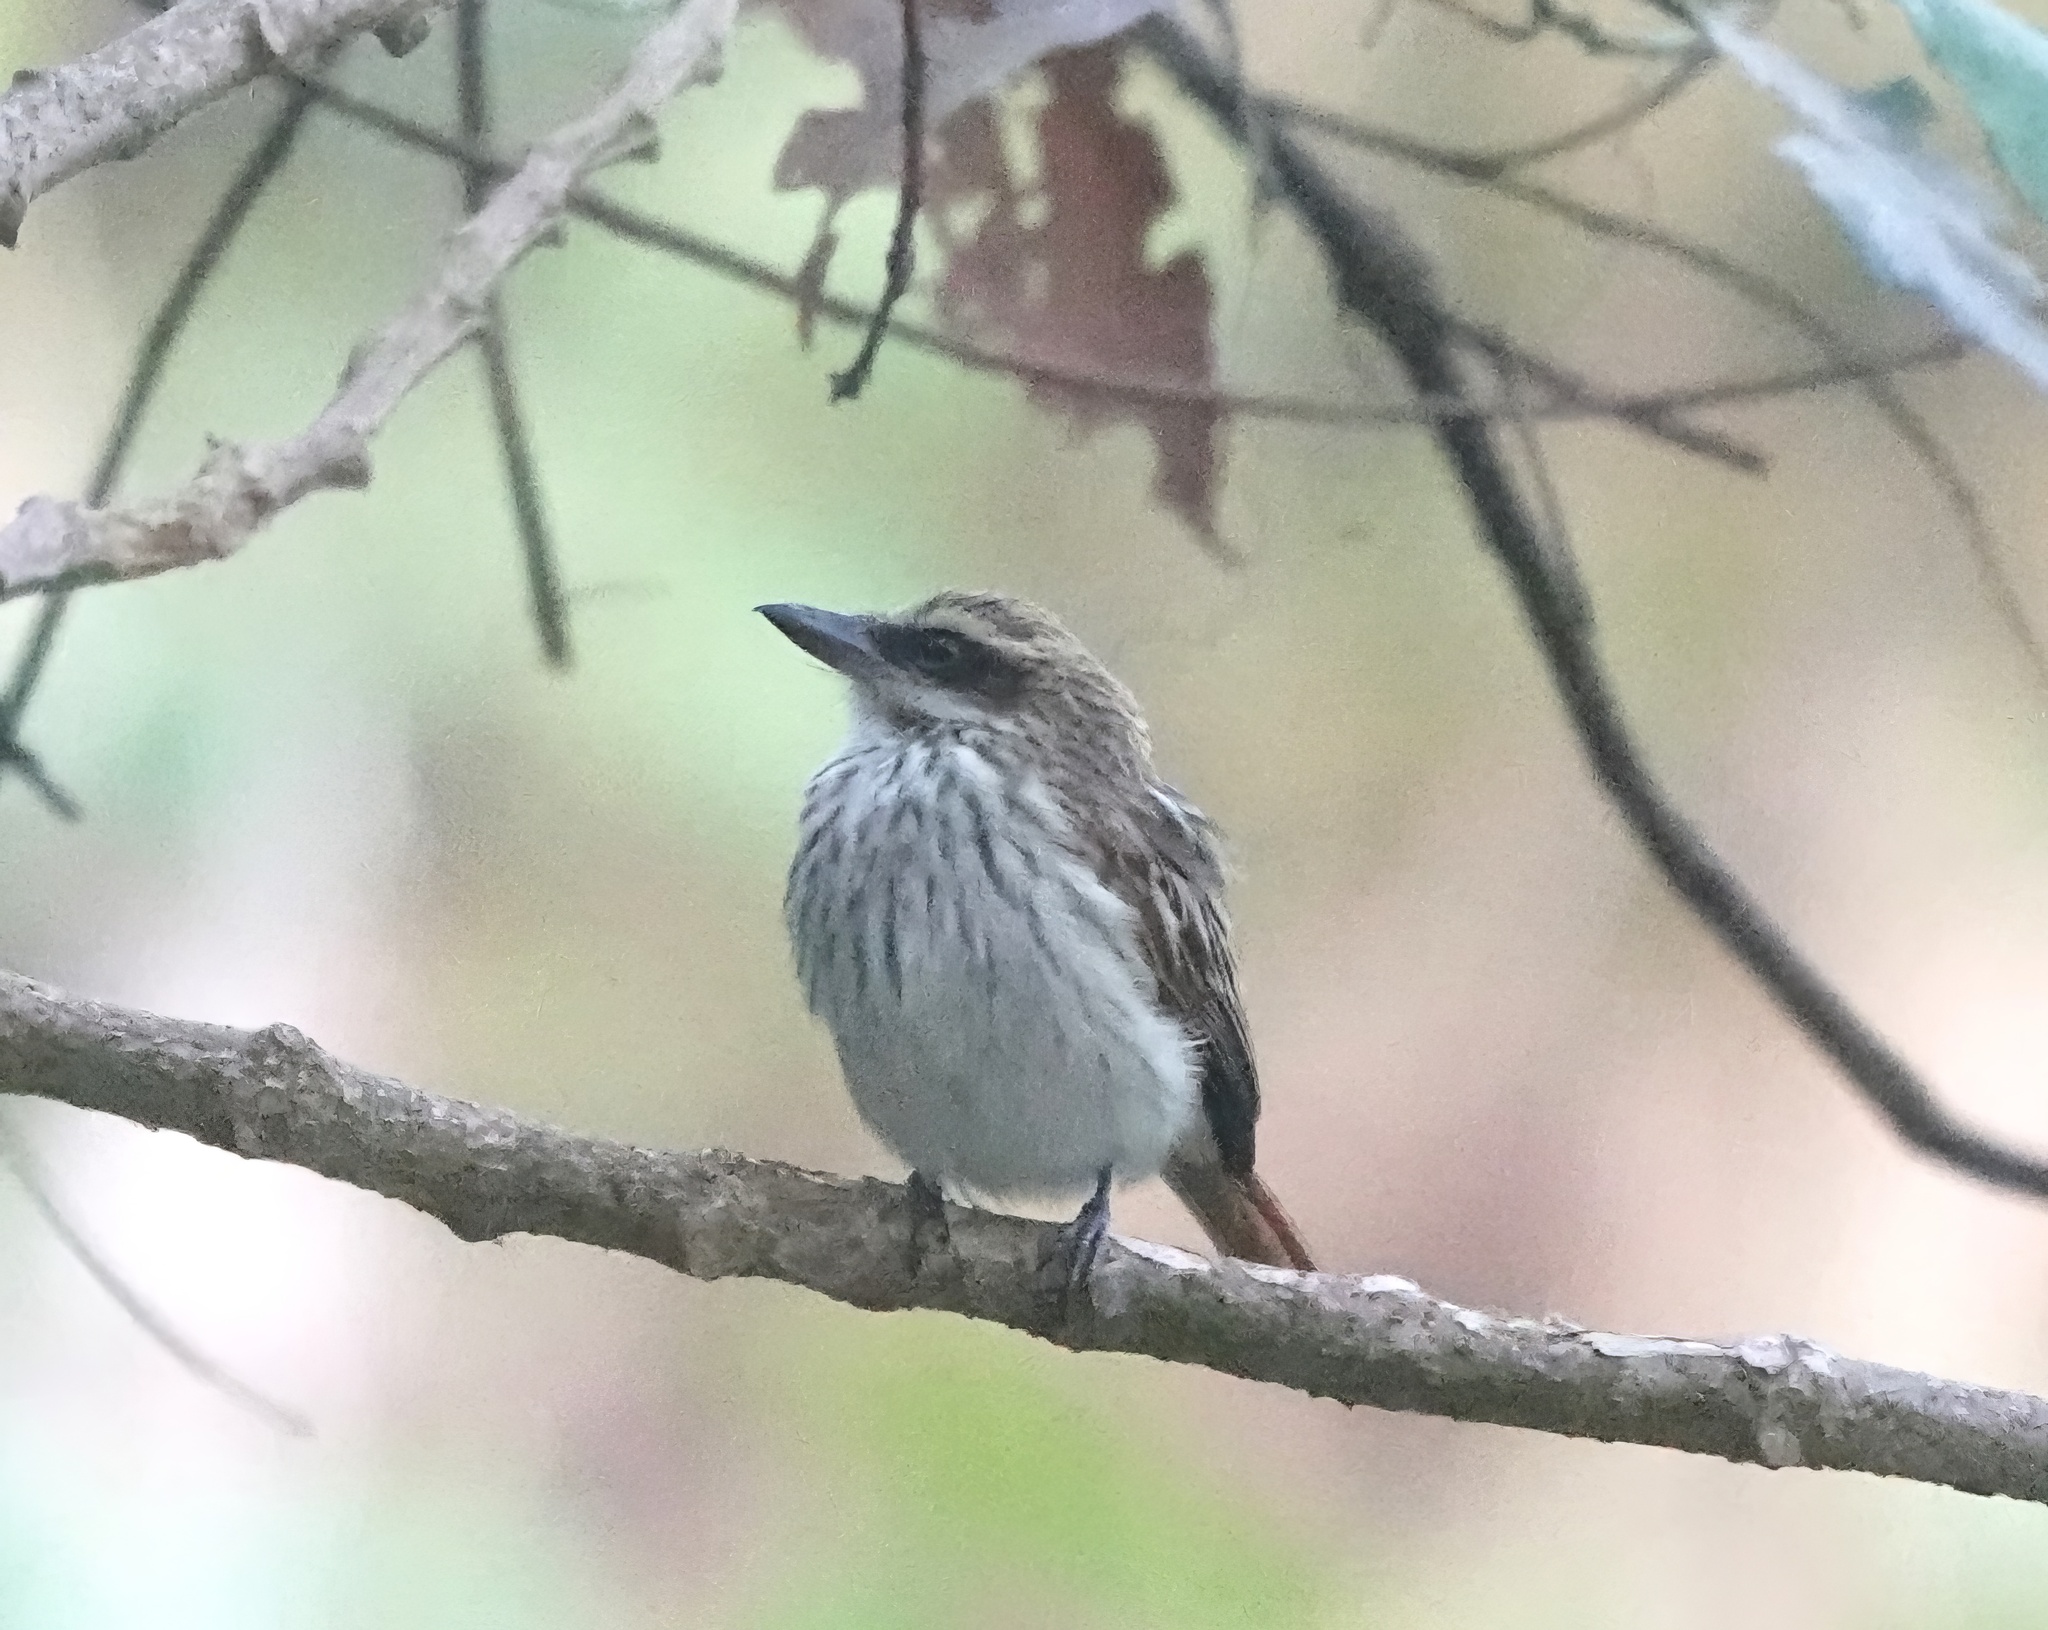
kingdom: Animalia
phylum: Chordata
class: Aves
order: Passeriformes
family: Tyrannidae
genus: Myiodynastes
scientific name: Myiodynastes maculatus
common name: Streaked flycatcher
